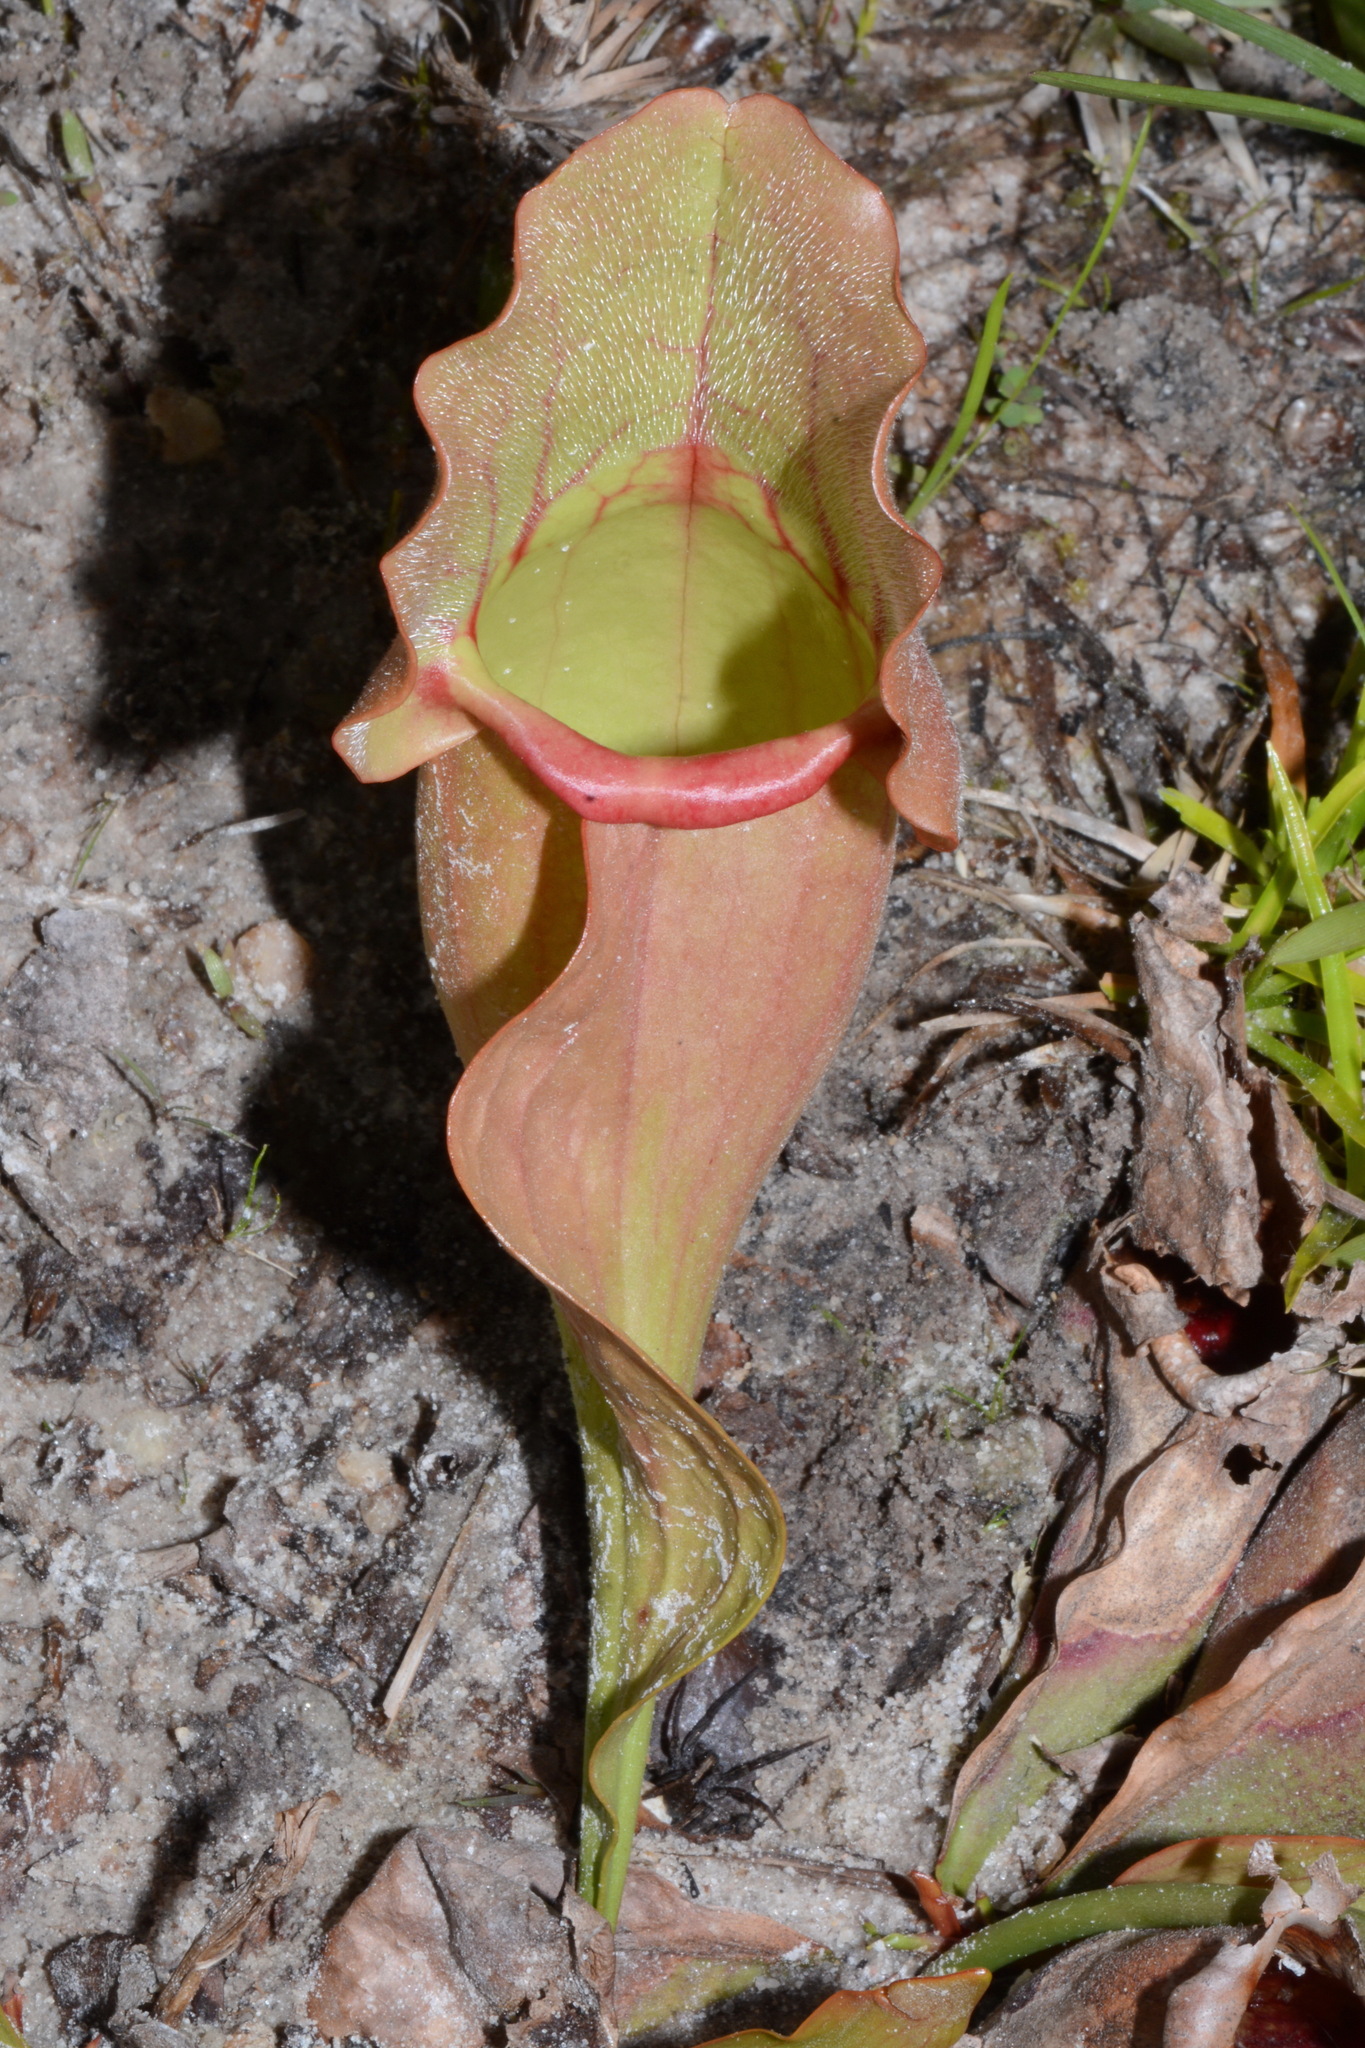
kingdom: Plantae
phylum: Tracheophyta
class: Magnoliopsida
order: Ericales
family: Sarraceniaceae
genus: Sarracenia
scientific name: Sarracenia rosea
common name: Pink pitcherplant
